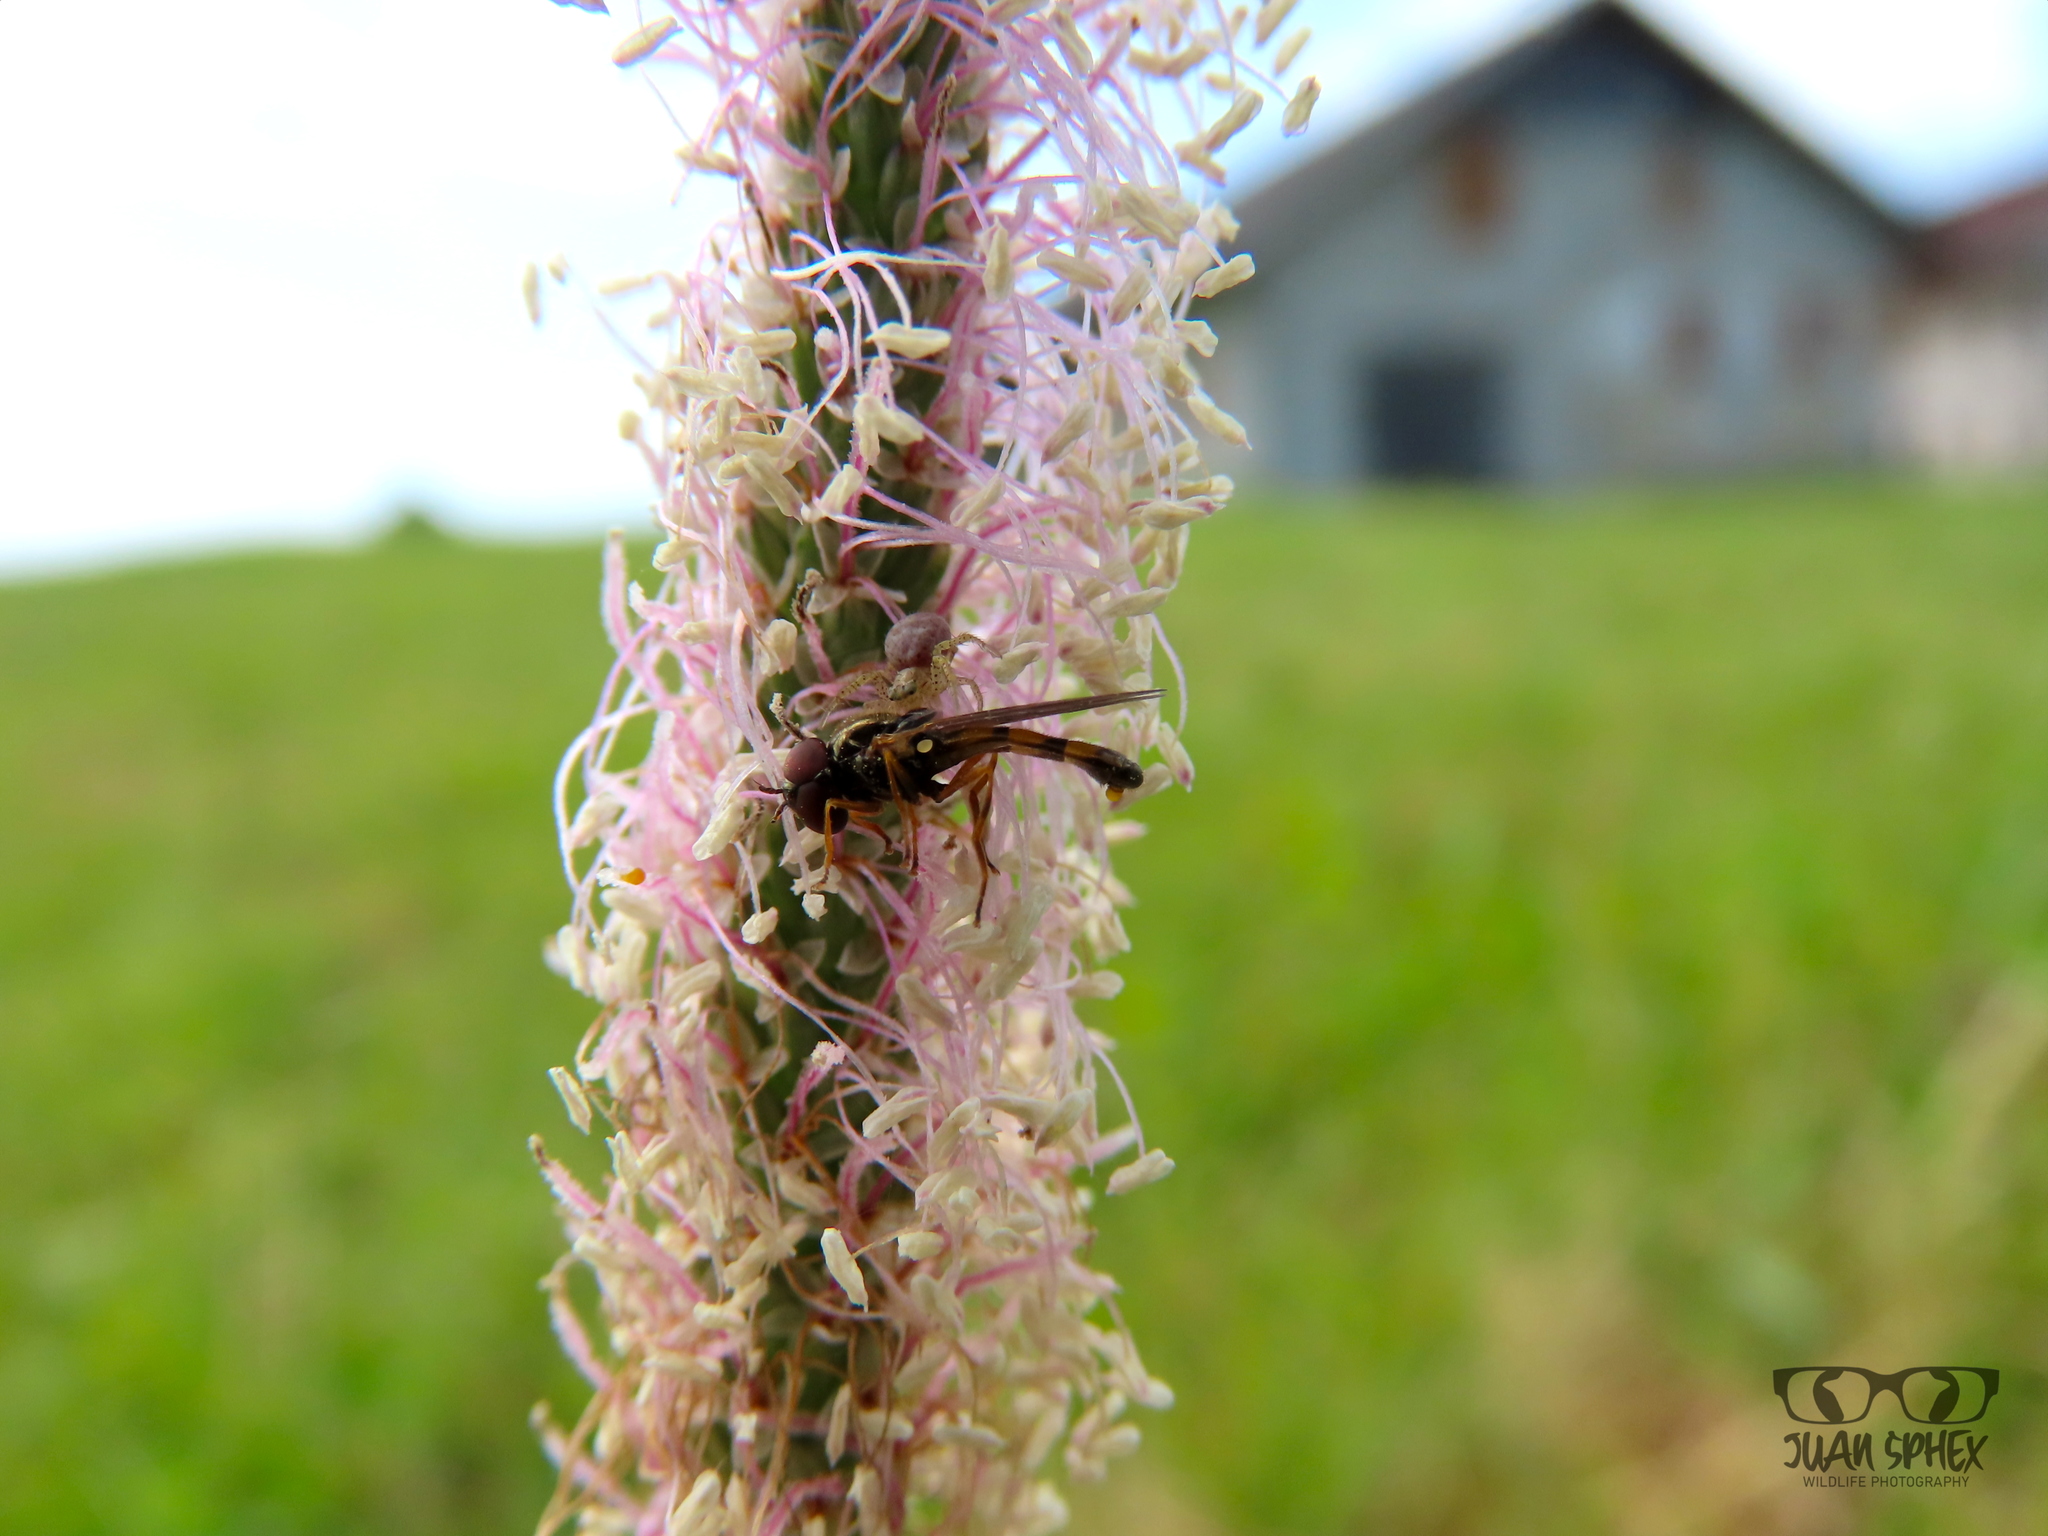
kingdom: Plantae
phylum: Tracheophyta
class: Magnoliopsida
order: Lamiales
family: Plantaginaceae
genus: Plantago
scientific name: Plantago media
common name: Hoary plantain
